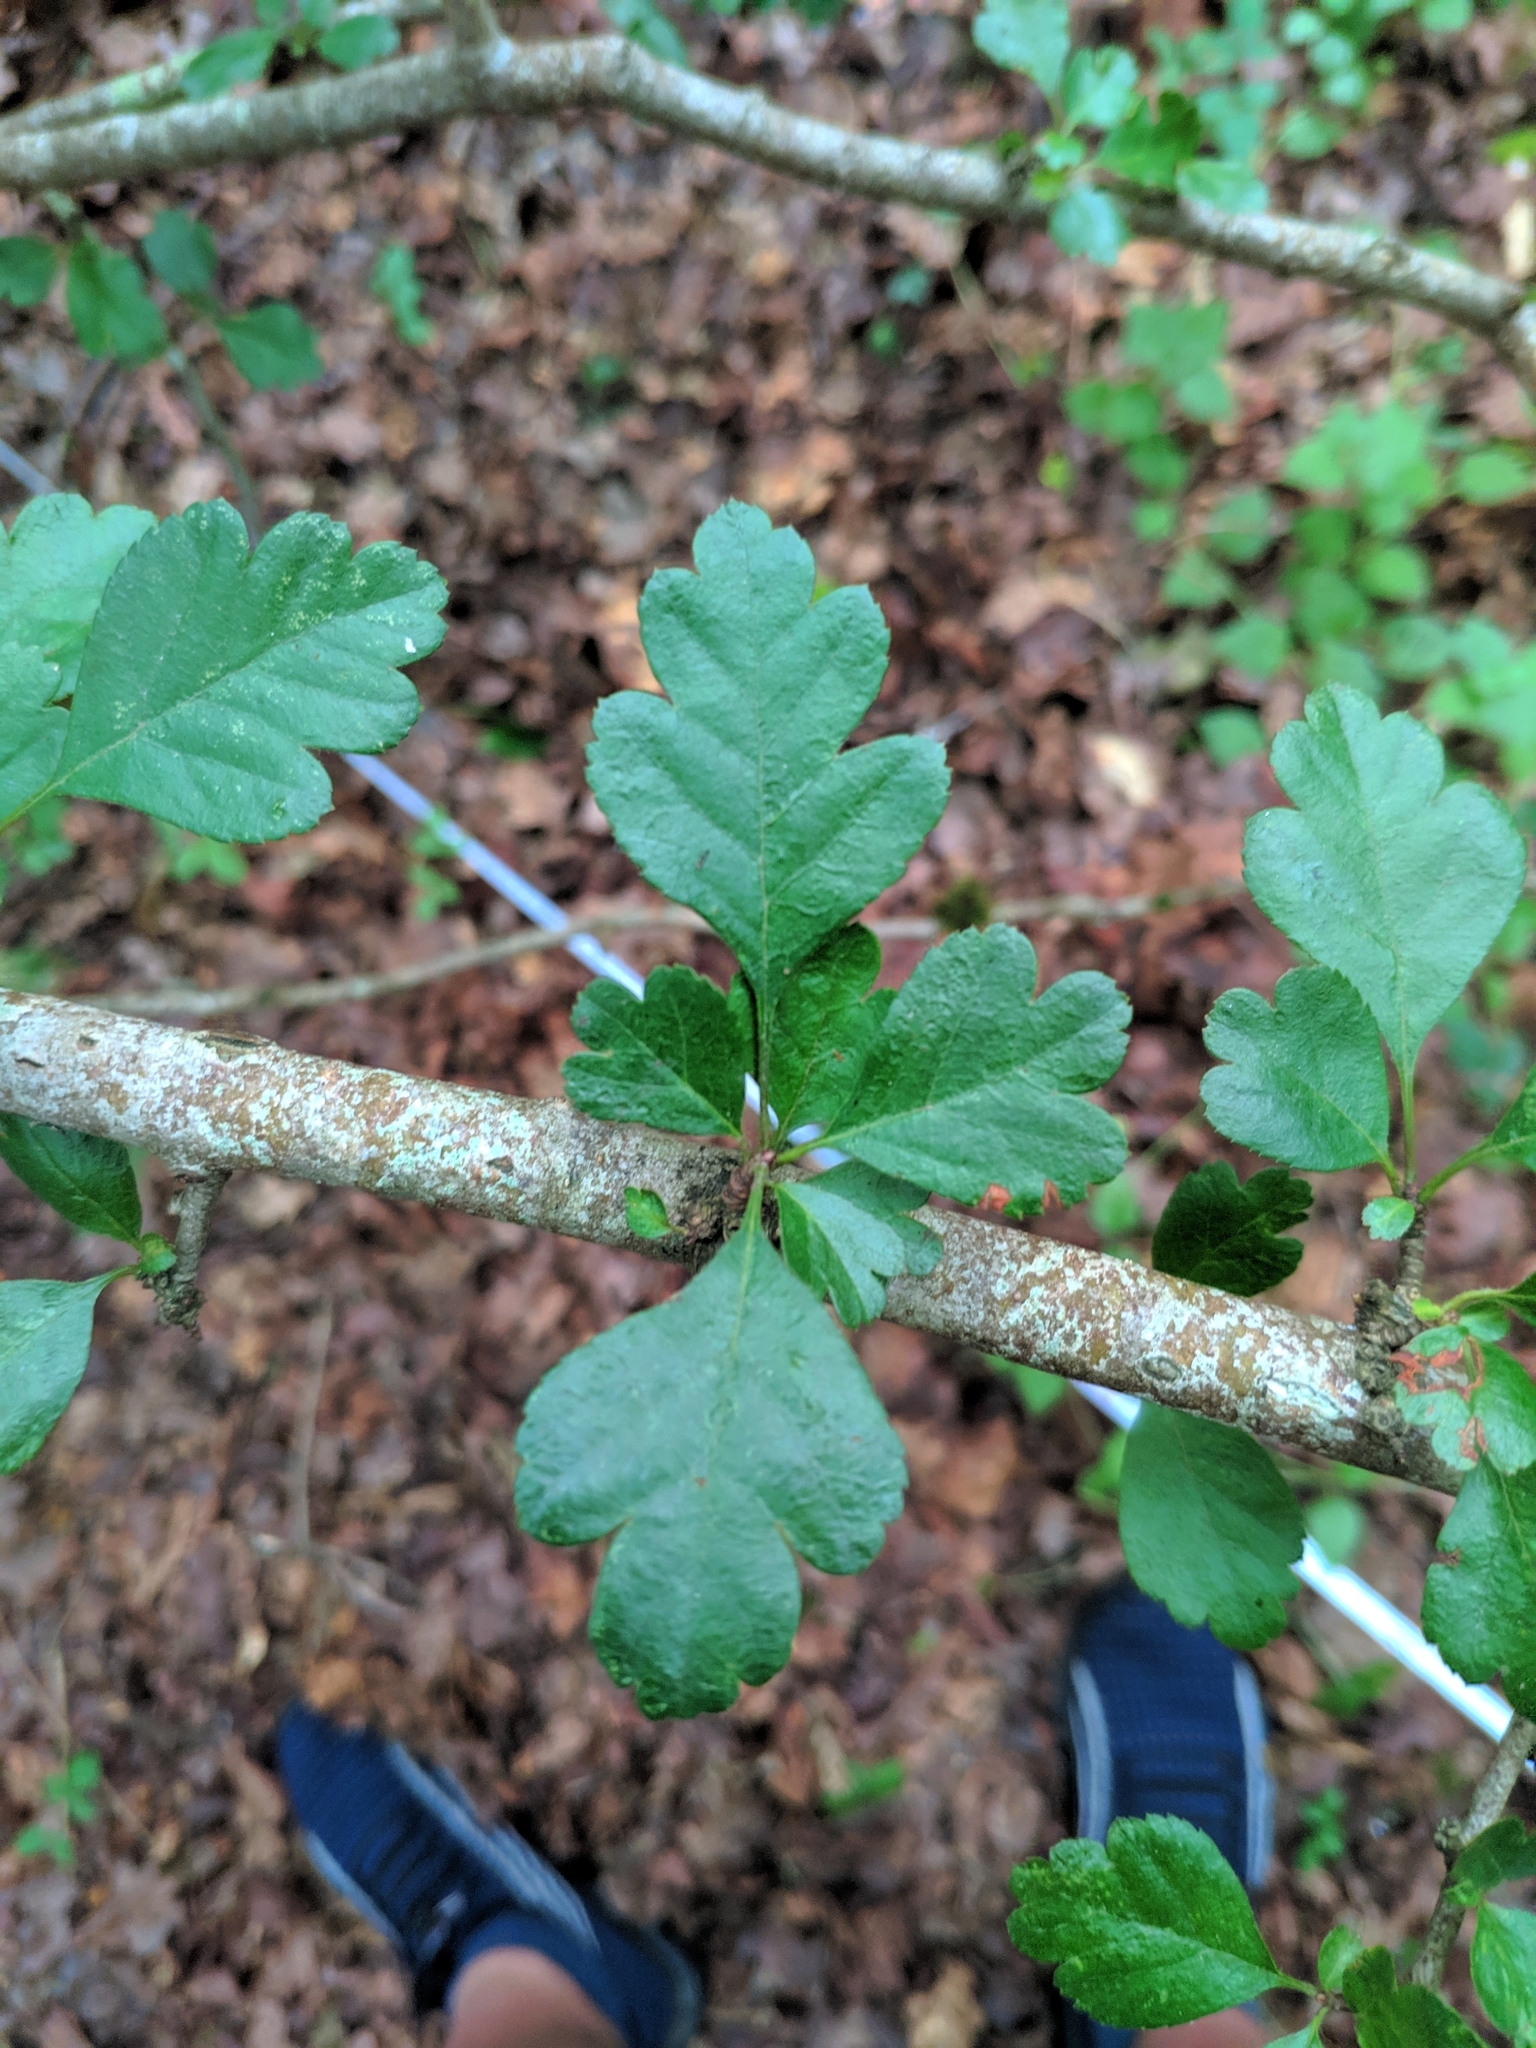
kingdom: Plantae
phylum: Tracheophyta
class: Magnoliopsida
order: Rosales
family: Rosaceae
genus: Crataegus
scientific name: Crataegus laevigata
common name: Midland hawthorn
